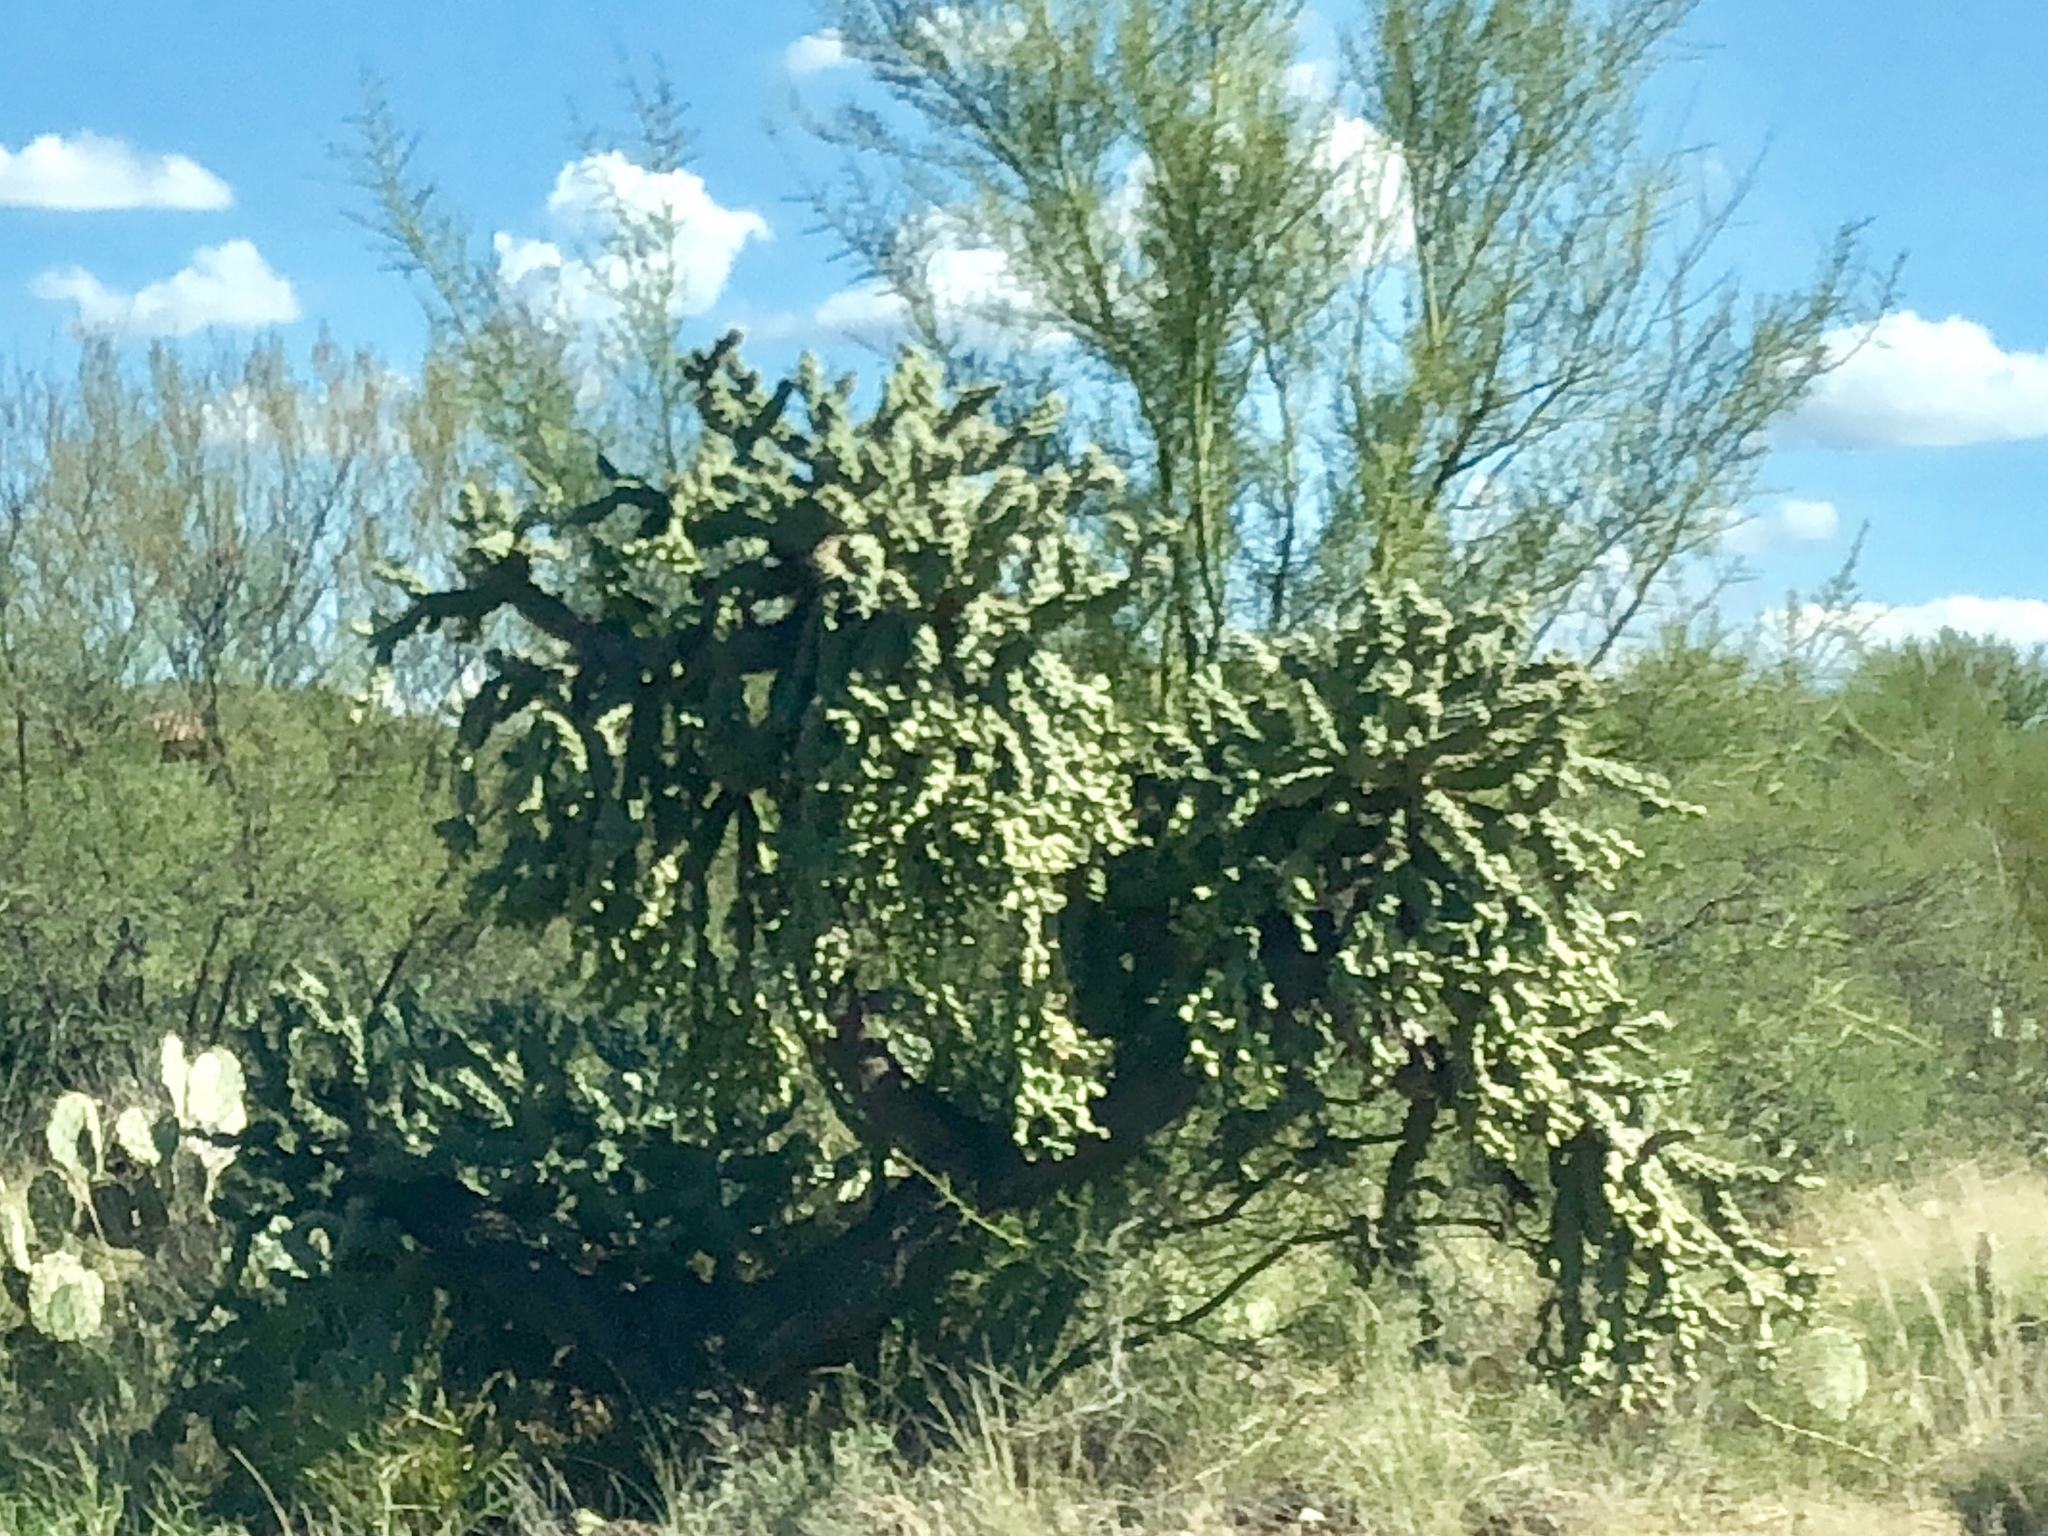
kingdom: Plantae
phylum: Tracheophyta
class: Magnoliopsida
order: Caryophyllales
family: Cactaceae
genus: Cylindropuntia
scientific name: Cylindropuntia fulgida
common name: Jumping cholla
